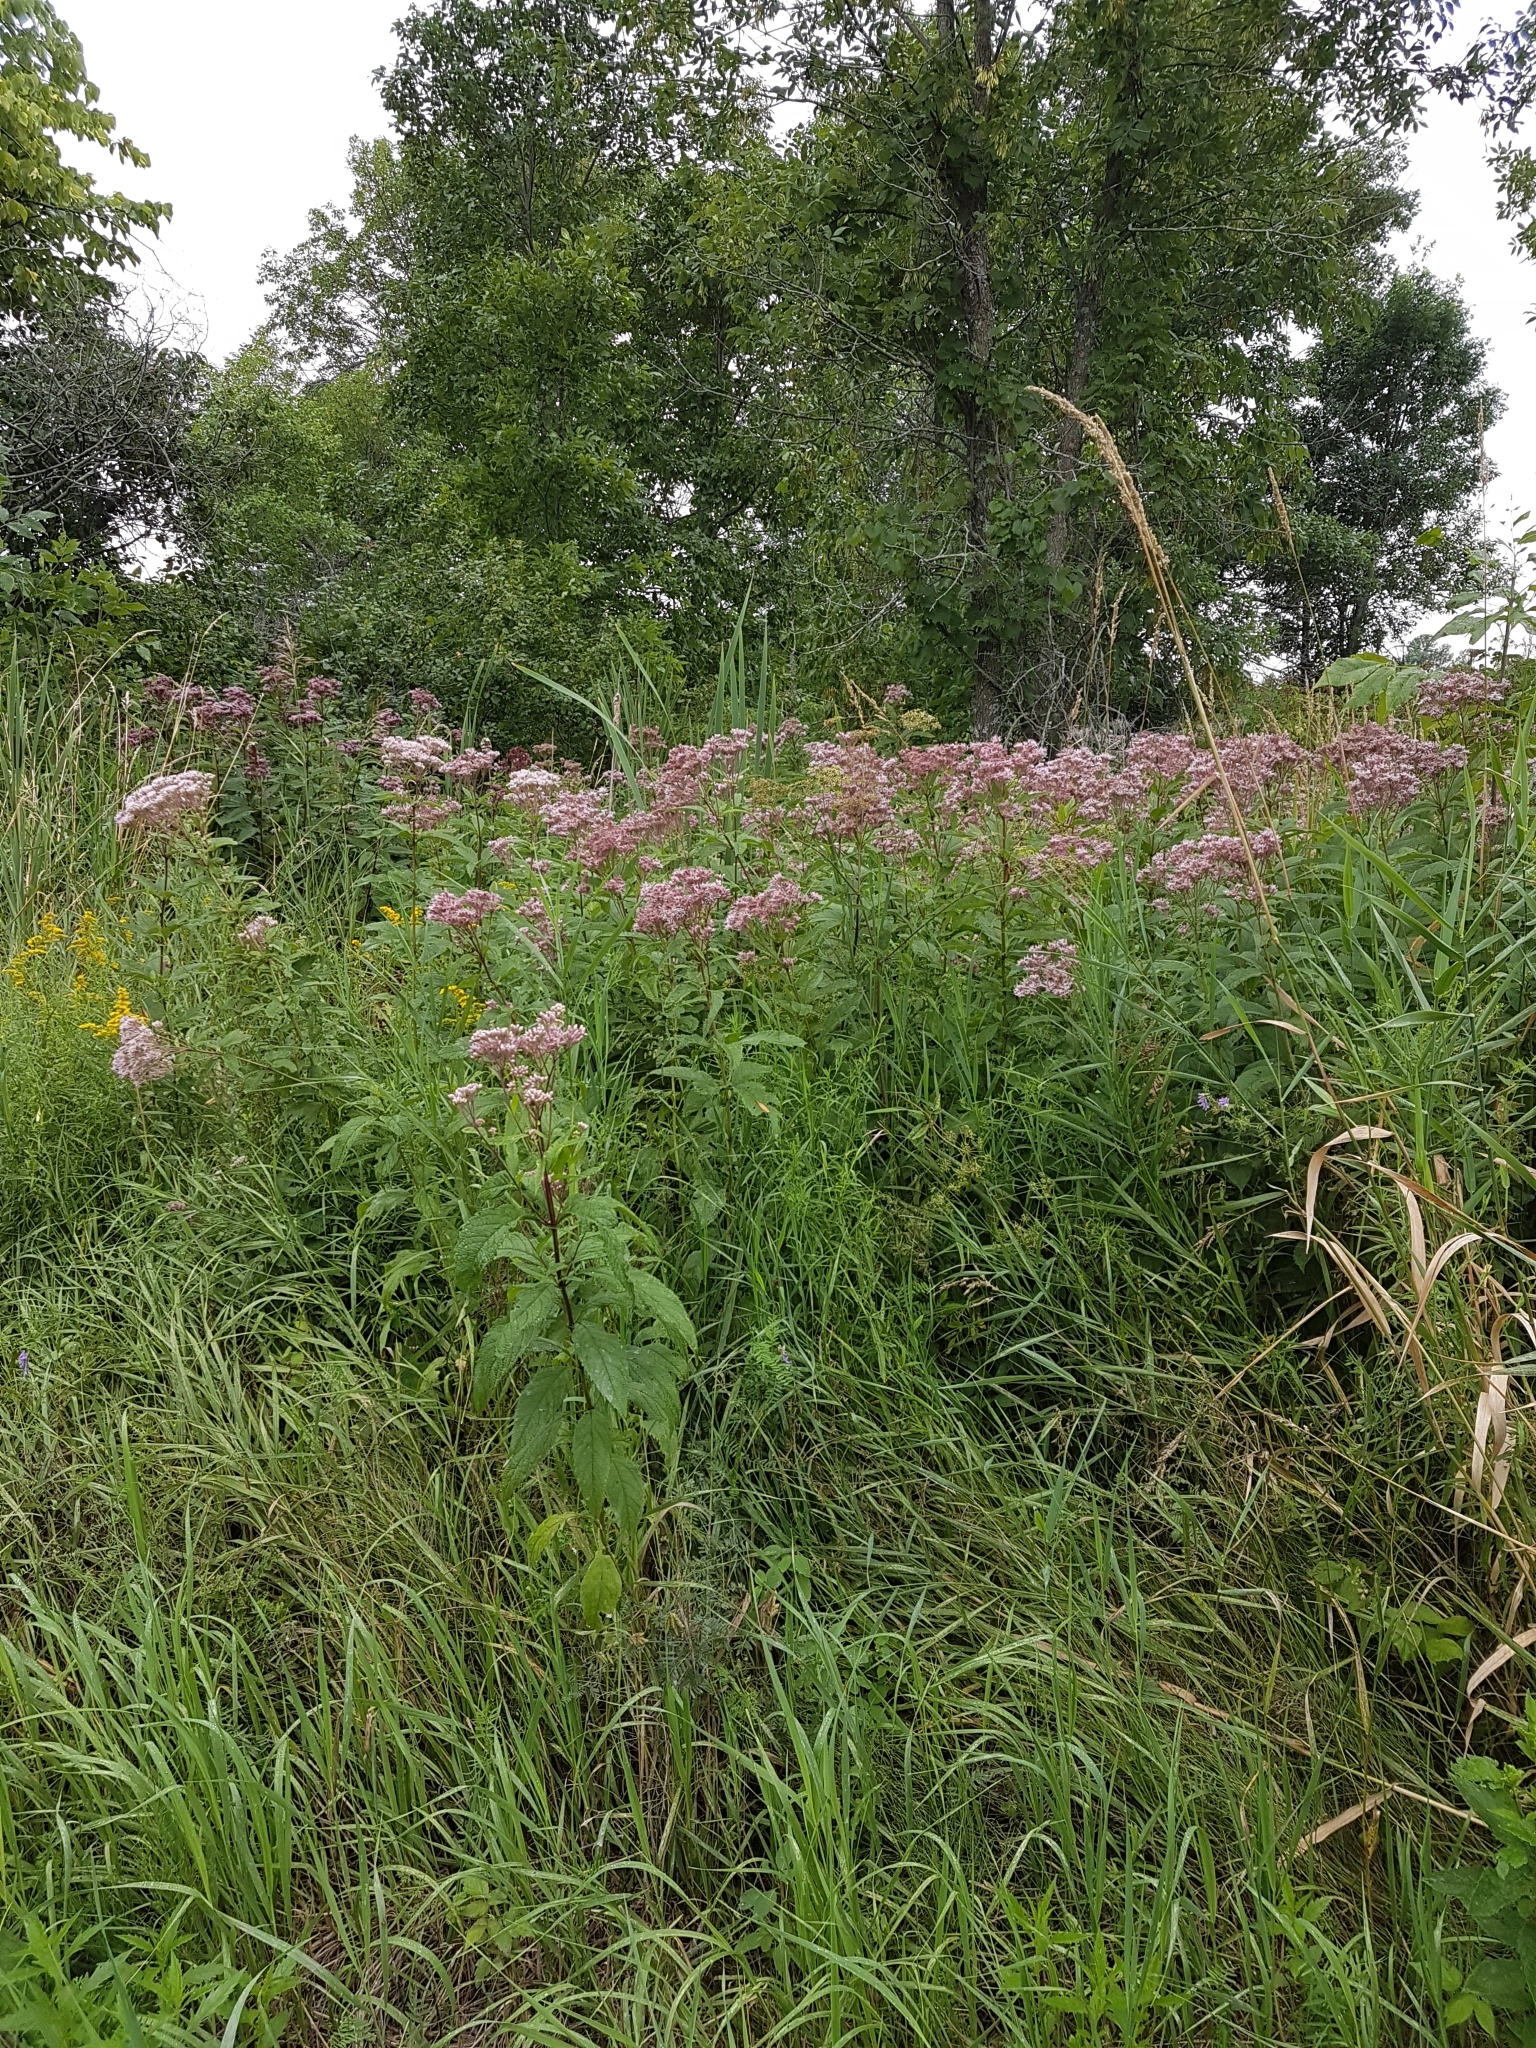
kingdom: Plantae
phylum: Tracheophyta
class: Magnoliopsida
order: Asterales
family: Asteraceae
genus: Eutrochium
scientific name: Eutrochium maculatum
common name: Spotted joe pye weed
